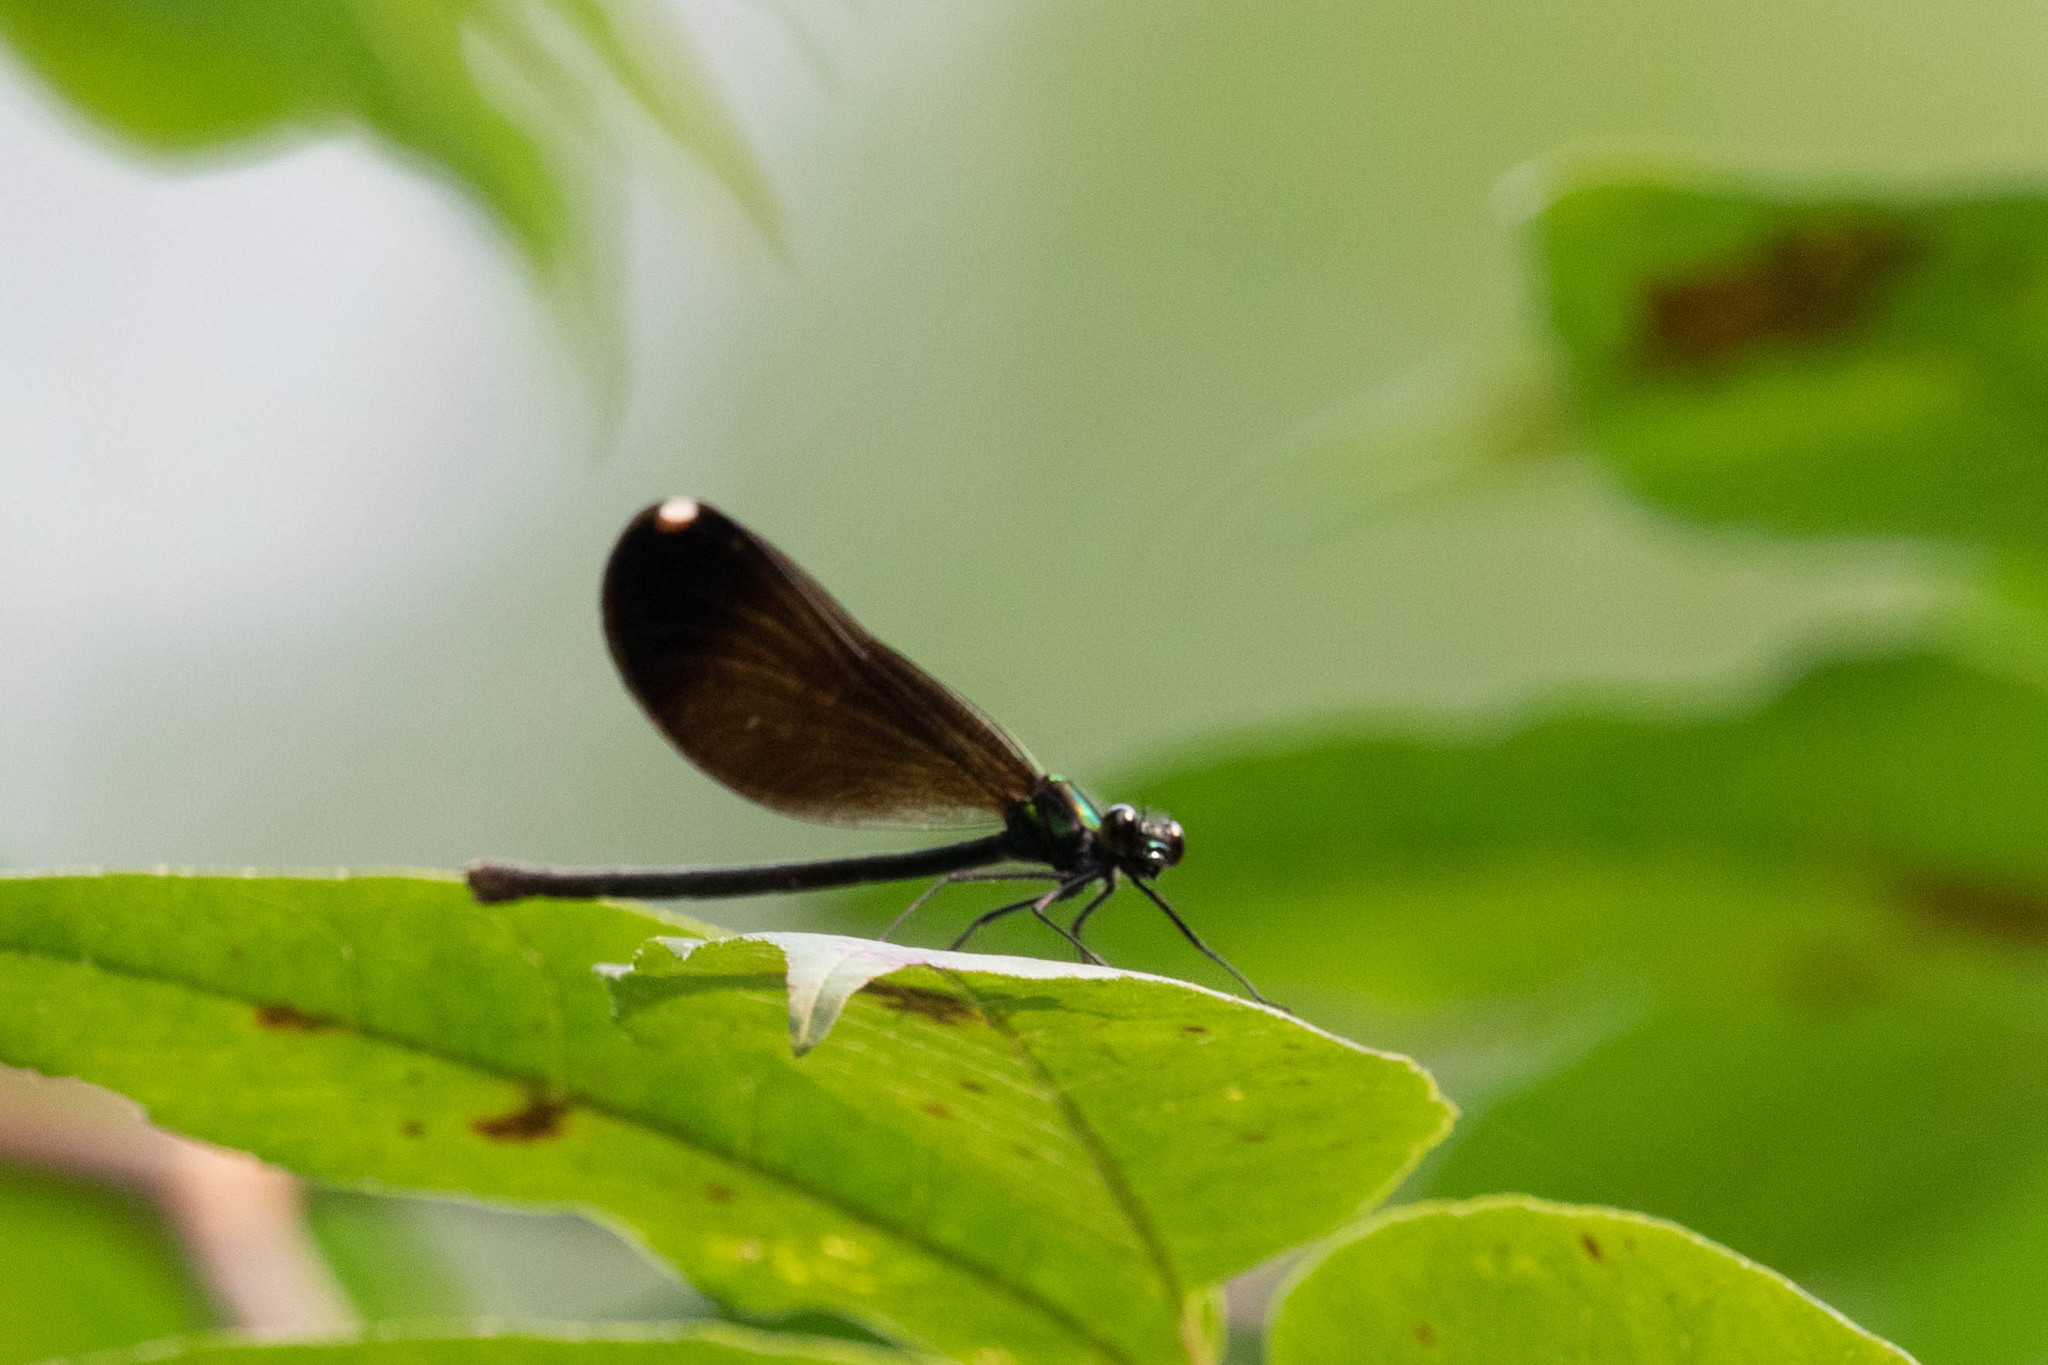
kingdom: Animalia
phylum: Arthropoda
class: Insecta
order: Odonata
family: Calopterygidae
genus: Calopteryx
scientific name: Calopteryx maculata
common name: Ebony jewelwing
